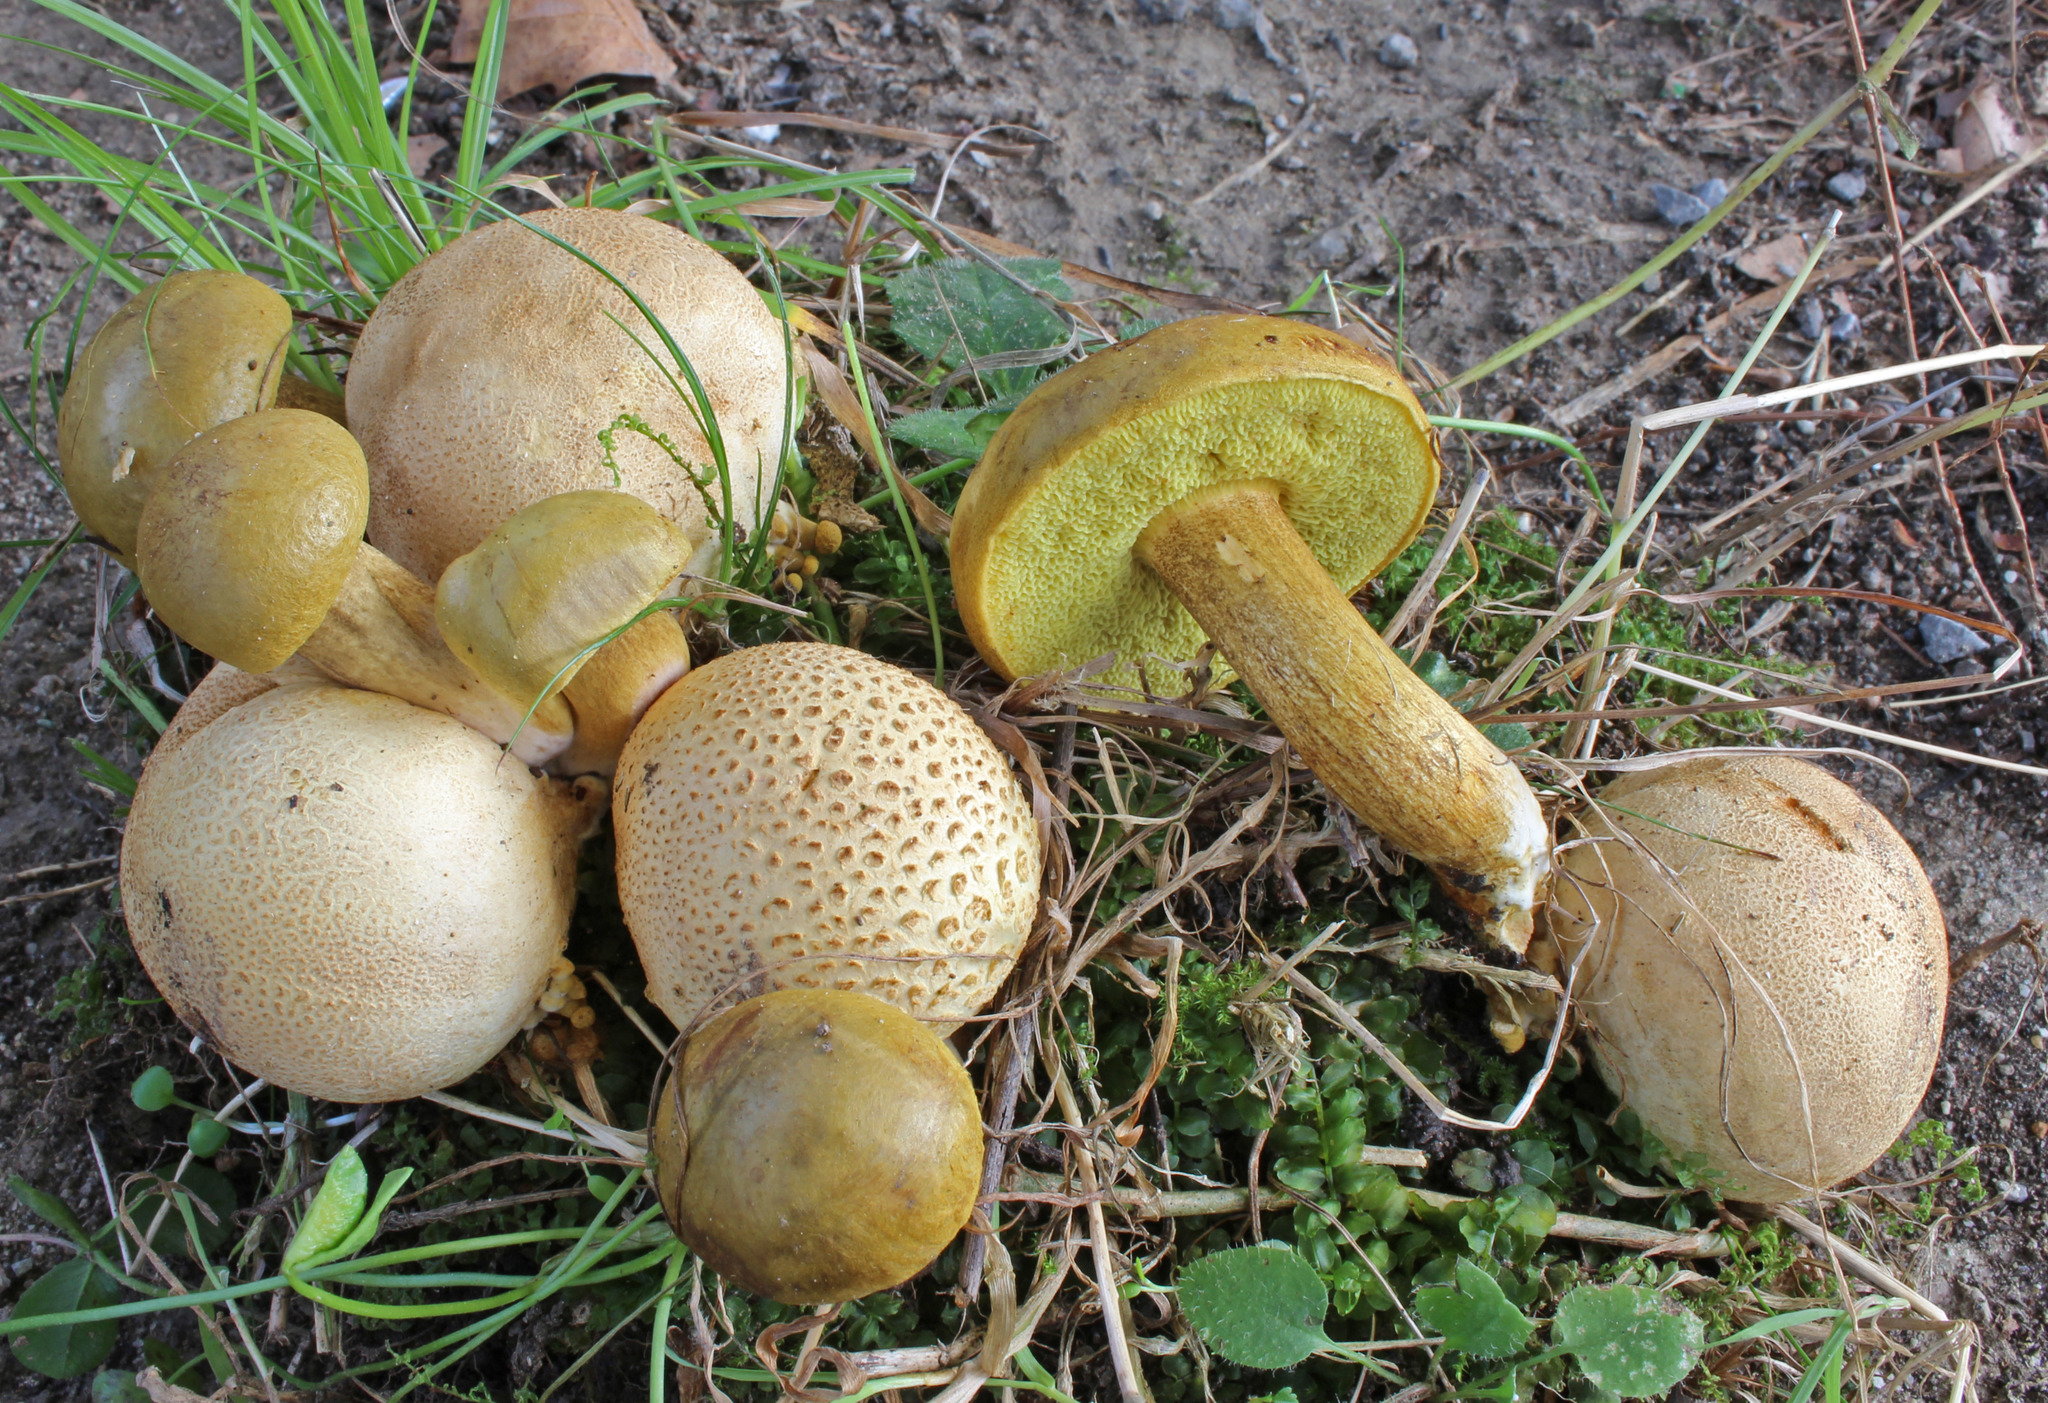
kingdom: Fungi
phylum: Basidiomycota
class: Agaricomycetes
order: Boletales
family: Boletaceae
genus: Pseudoboletus
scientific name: Pseudoboletus parasiticus
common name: Parasitic bolete
